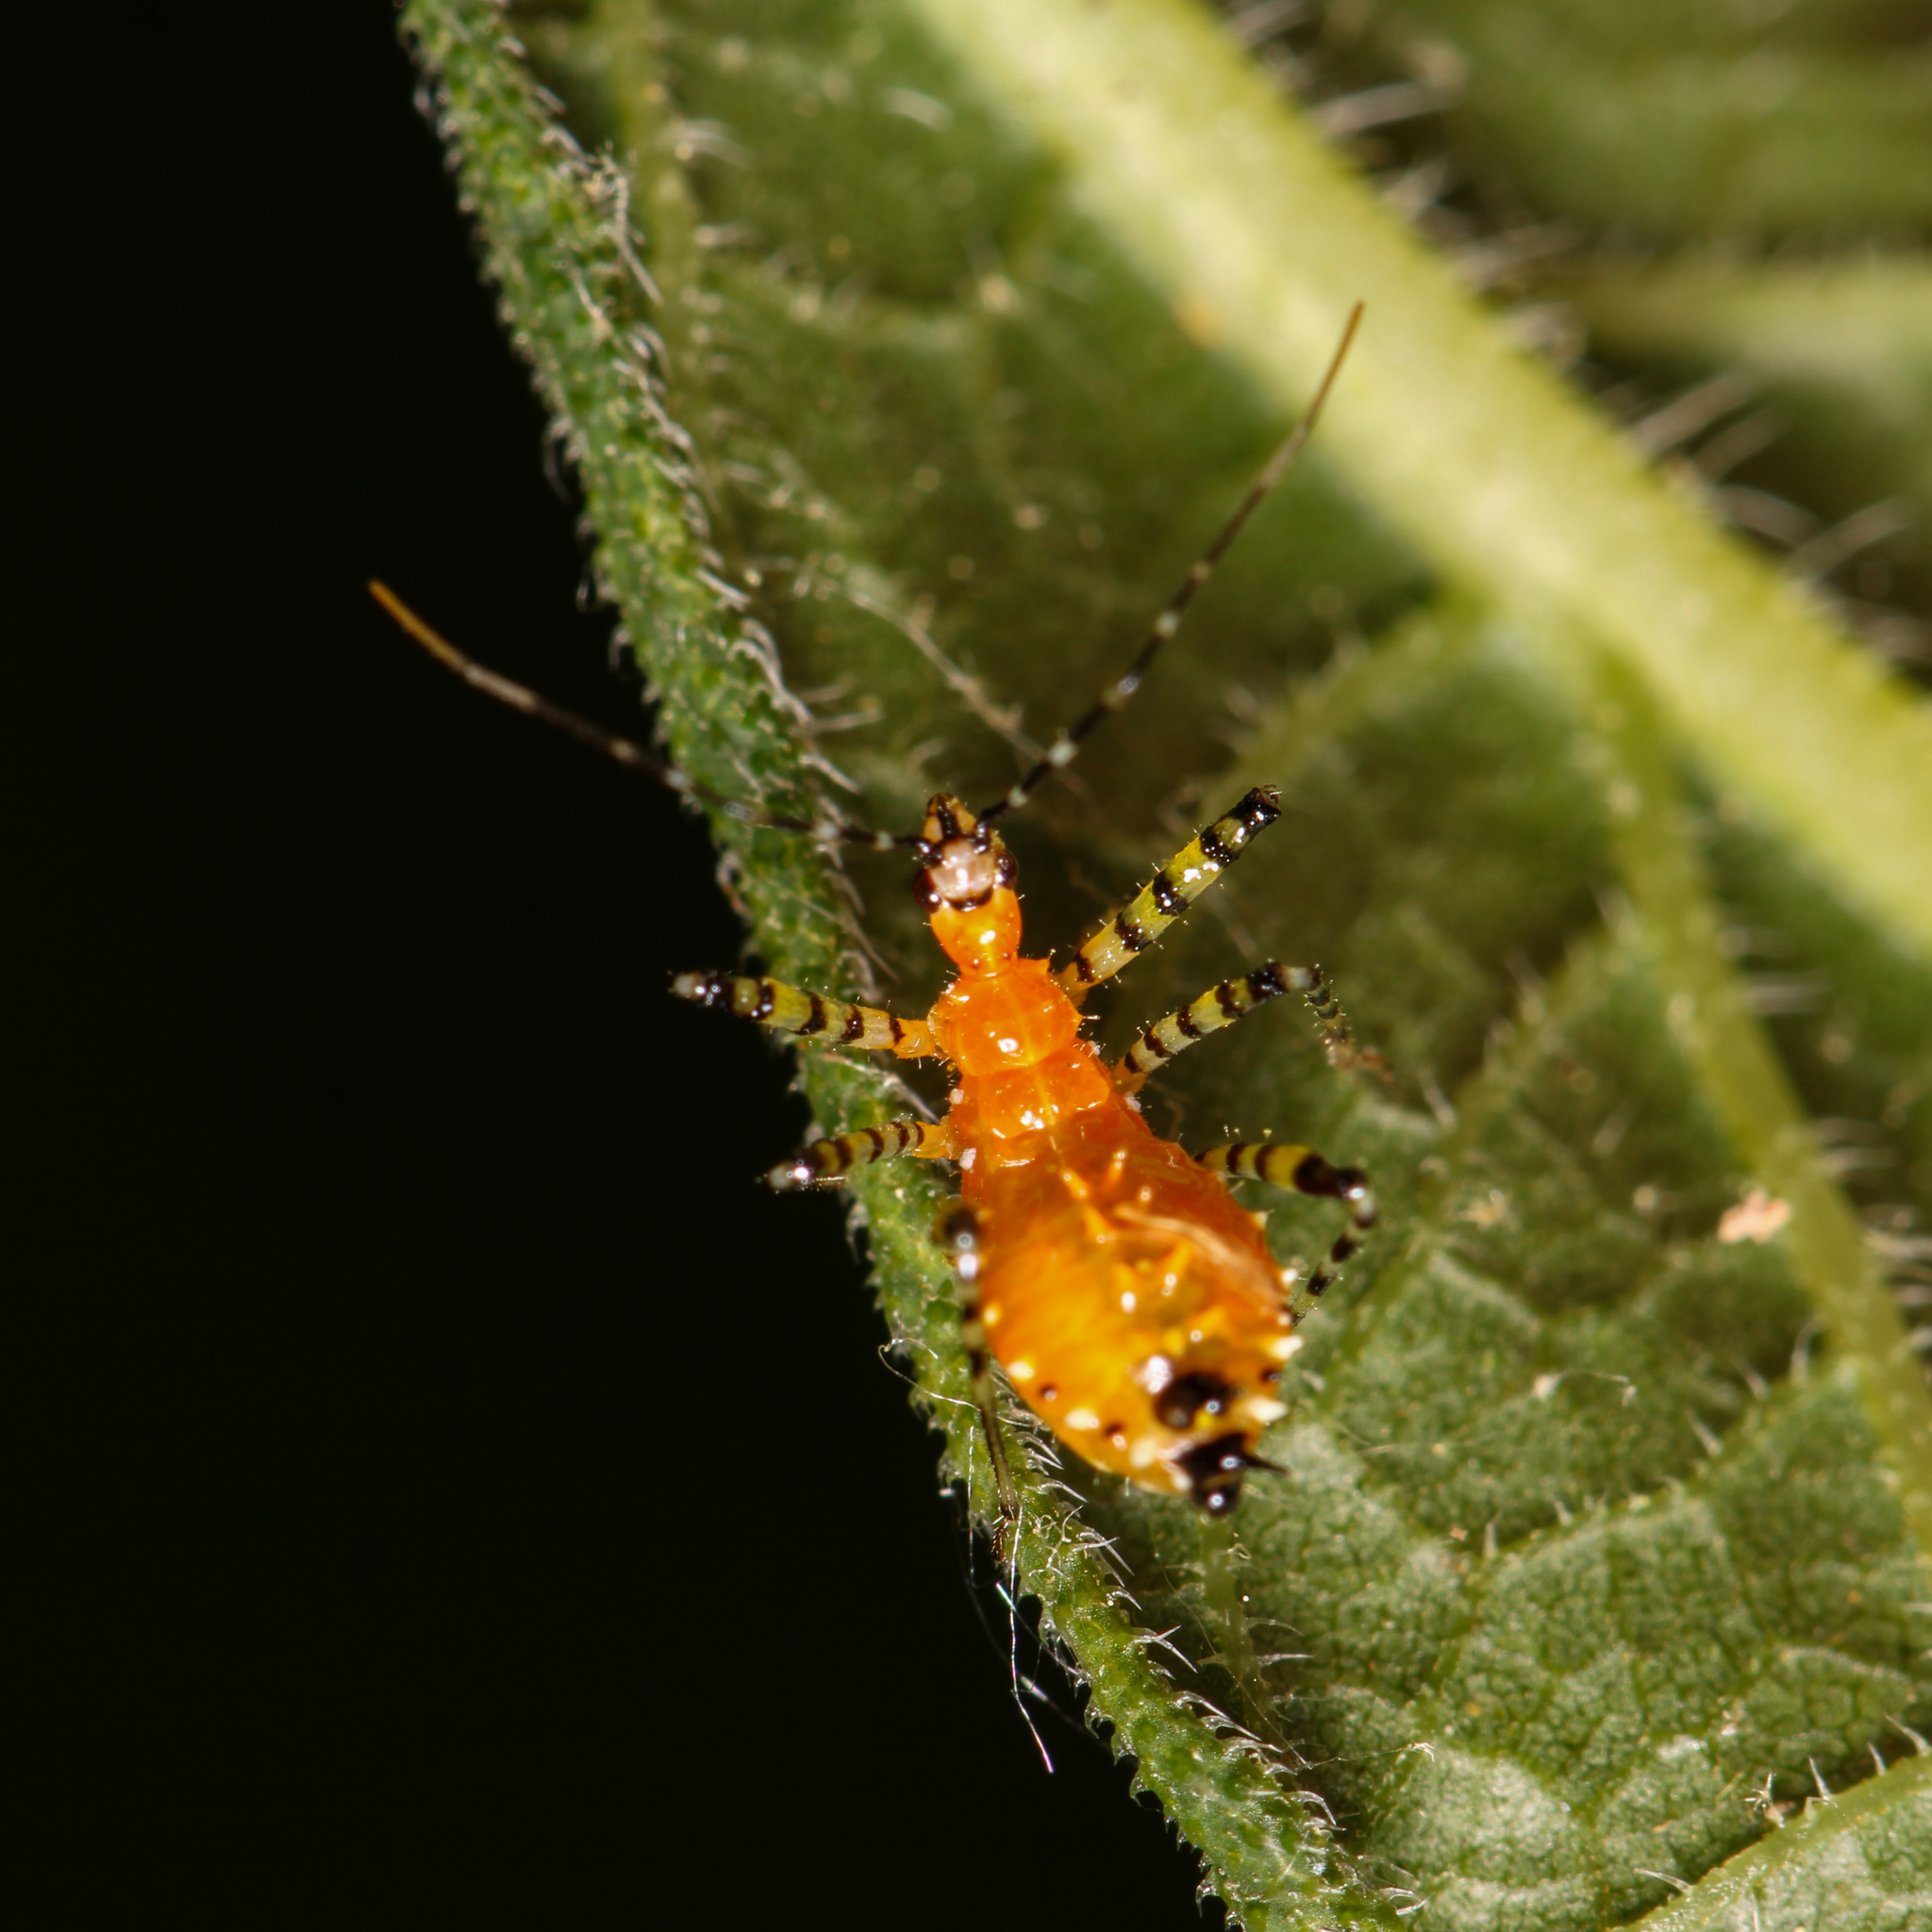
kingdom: Animalia
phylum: Arthropoda
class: Insecta
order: Hemiptera
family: Reduviidae
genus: Pselliopus
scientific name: Pselliopus barberi
